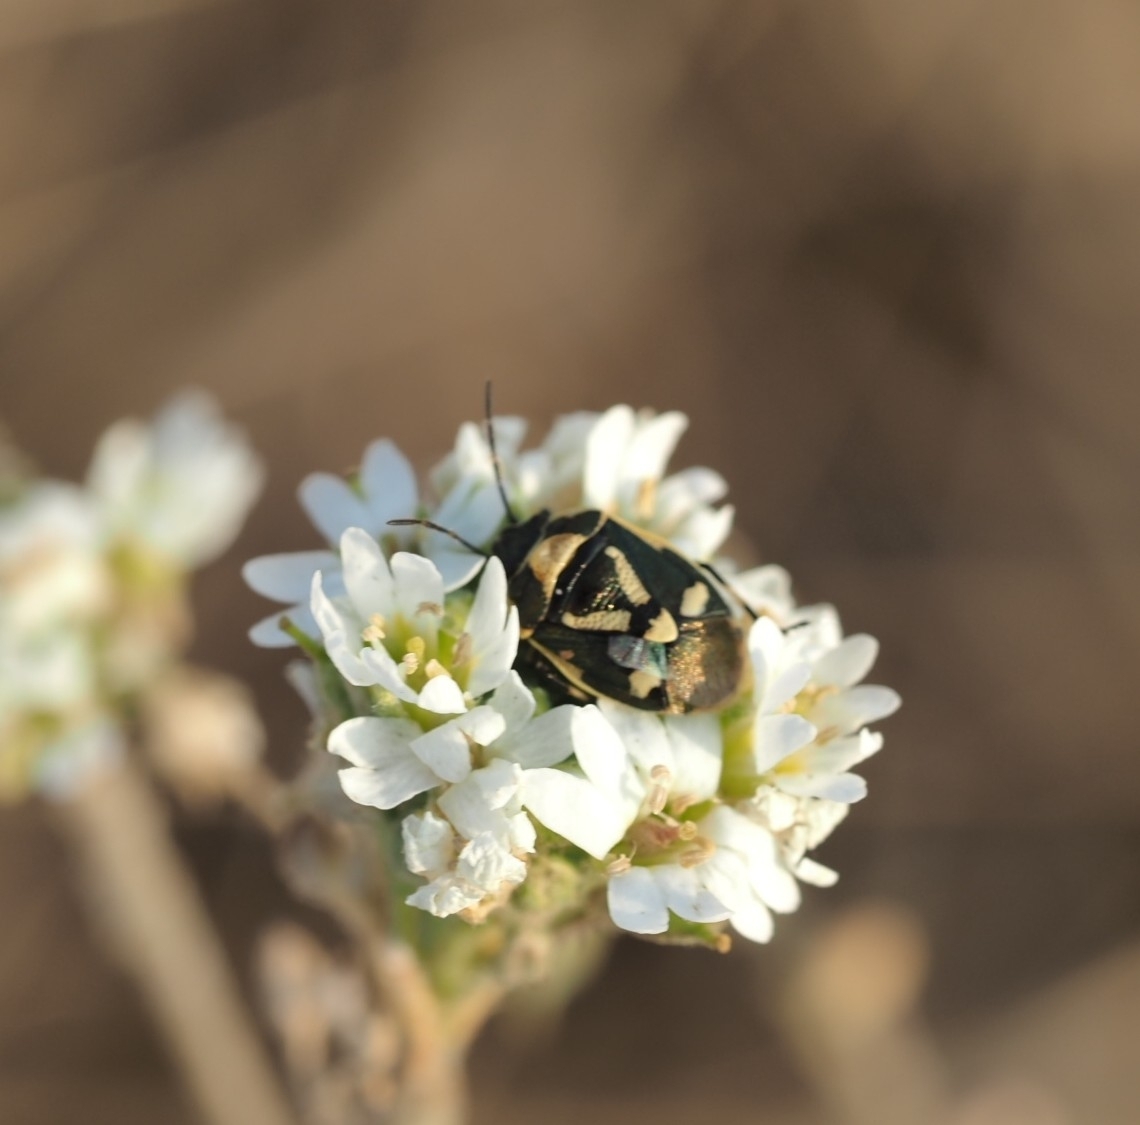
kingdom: Animalia
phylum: Arthropoda
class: Insecta
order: Hemiptera
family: Pentatomidae
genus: Eurydema
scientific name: Eurydema oleracea
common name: Cabbage bug
